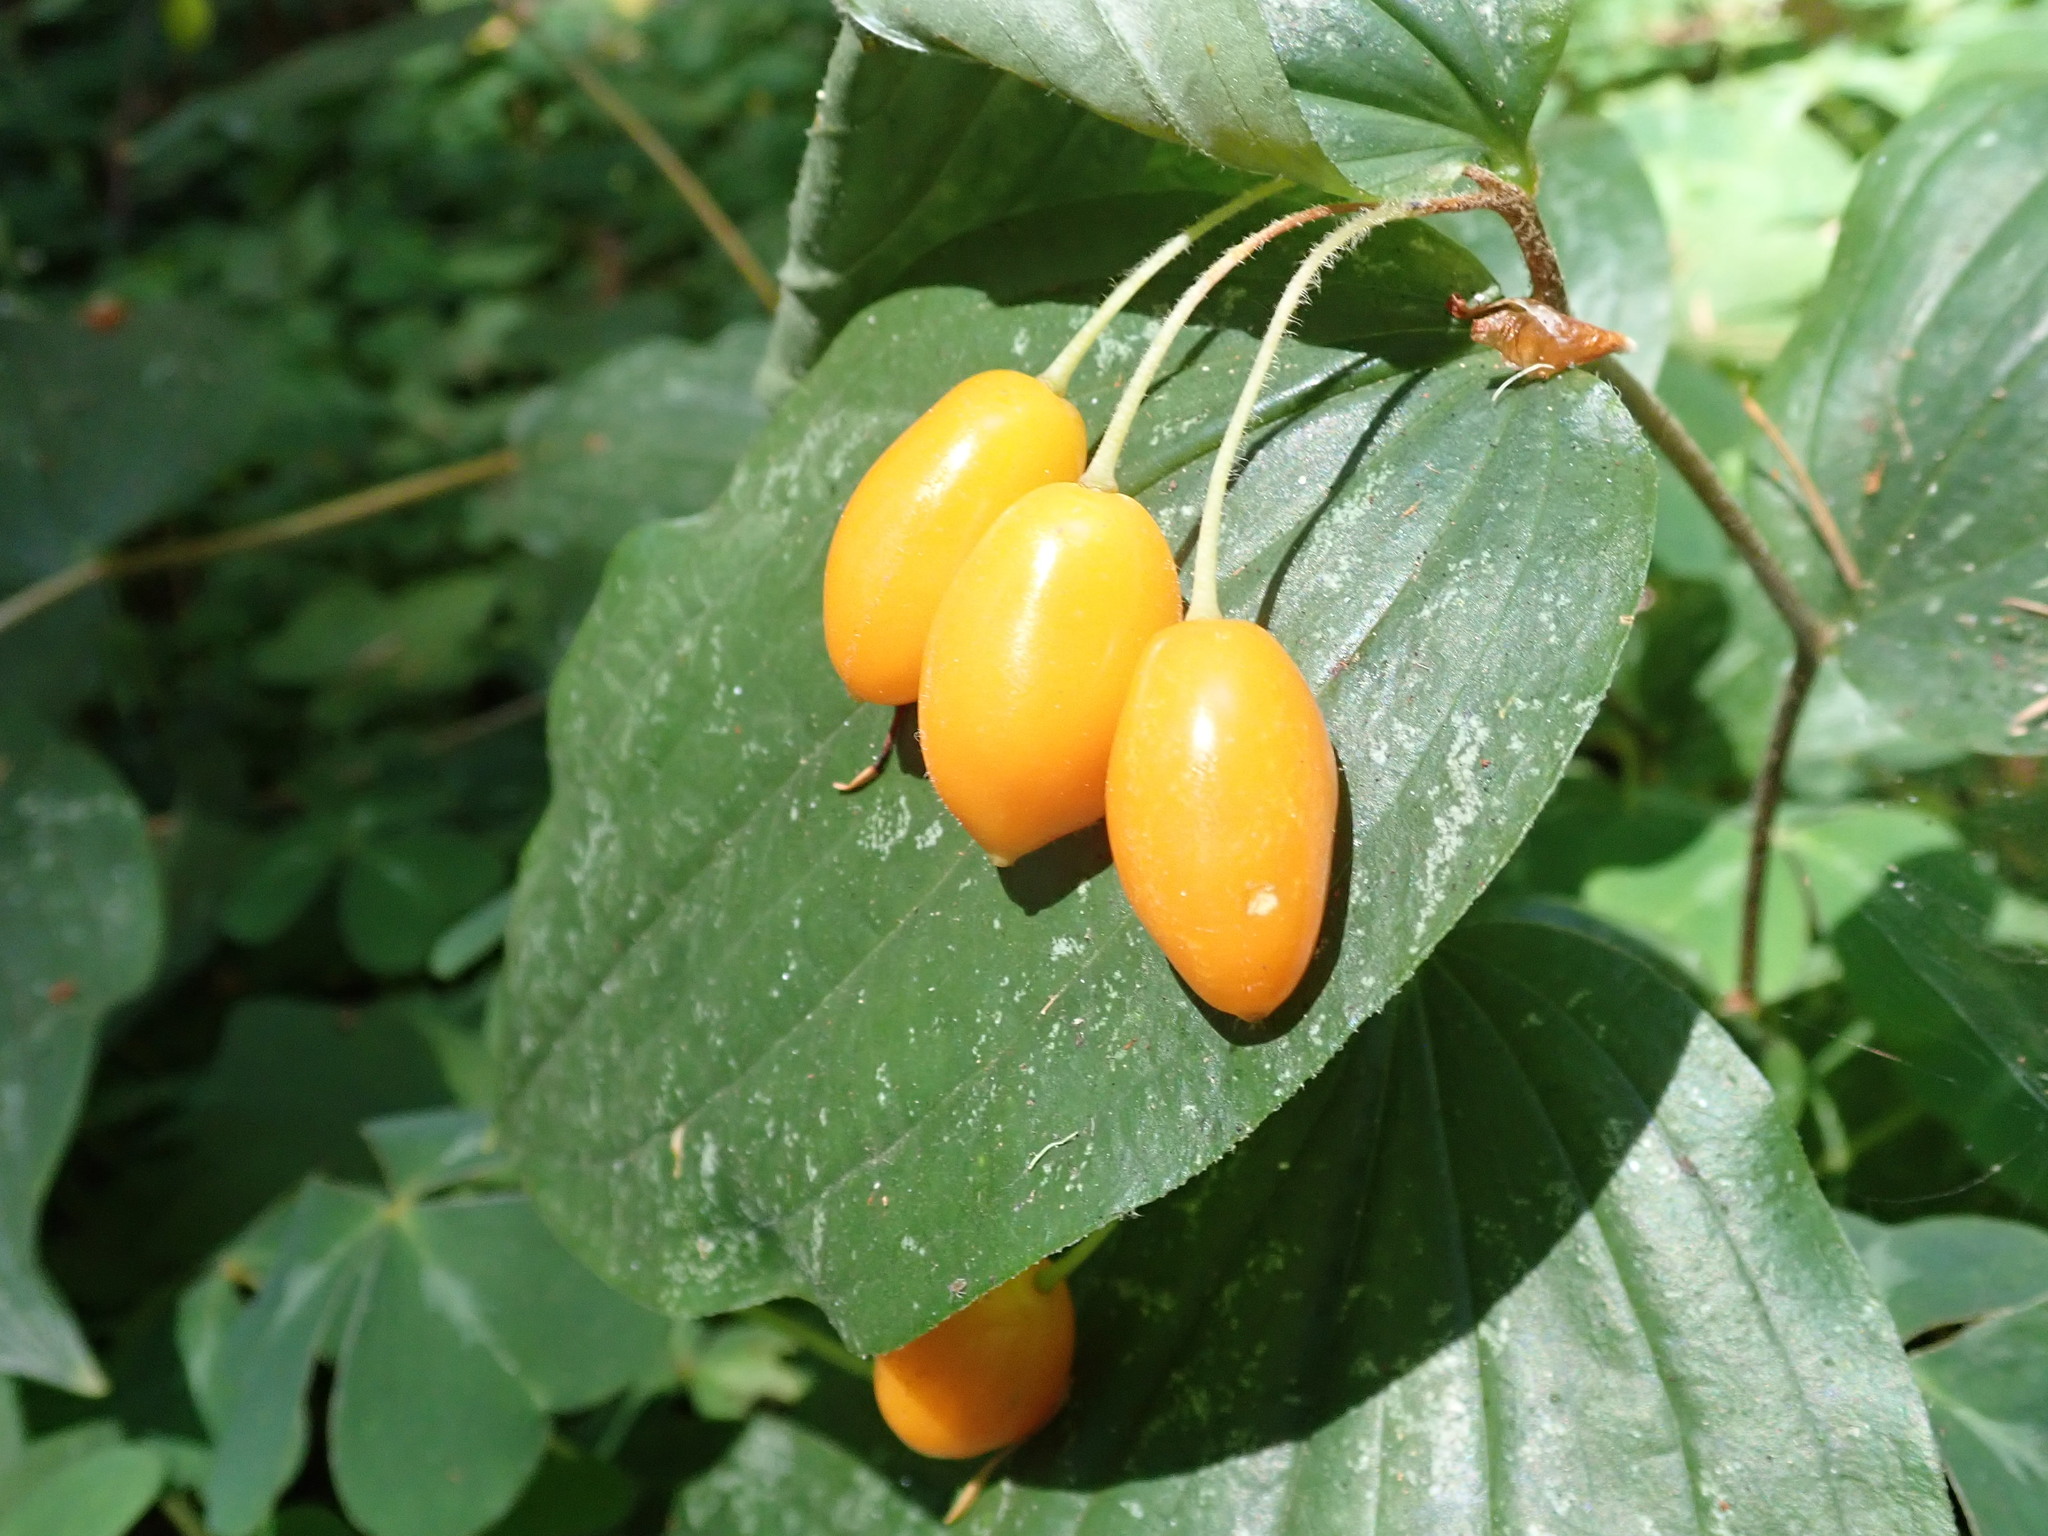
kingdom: Plantae
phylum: Tracheophyta
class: Liliopsida
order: Liliales
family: Liliaceae
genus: Prosartes
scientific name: Prosartes smithii
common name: Fairy-lantern
